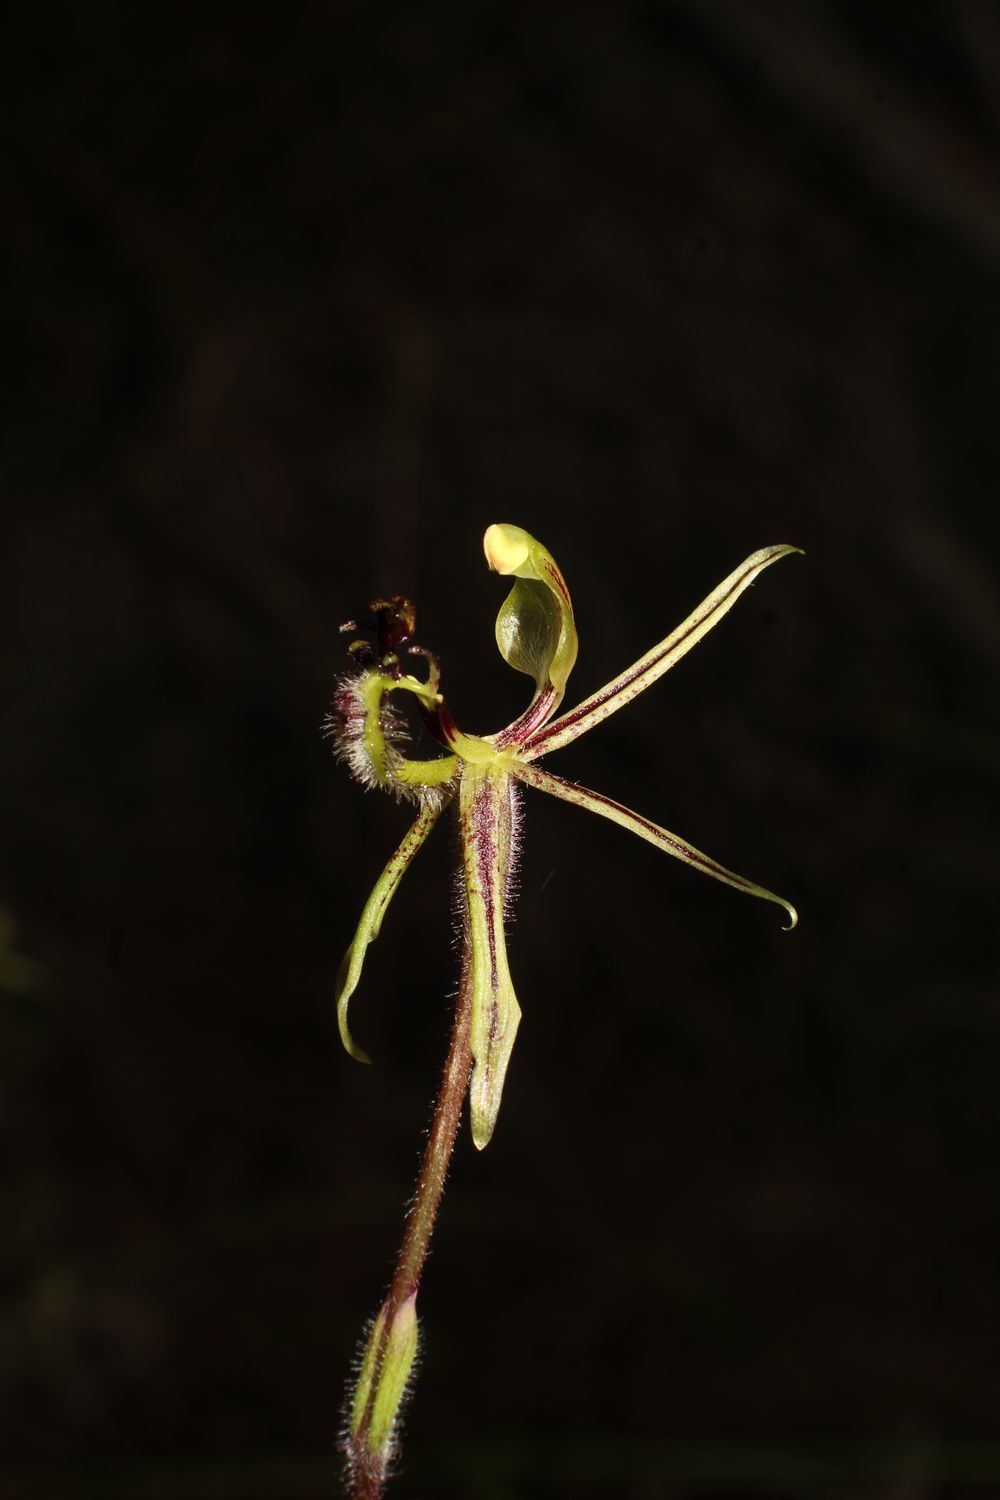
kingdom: Plantae
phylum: Tracheophyta
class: Liliopsida
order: Asparagales
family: Orchidaceae
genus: Caladenia
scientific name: Caladenia barbarossa
